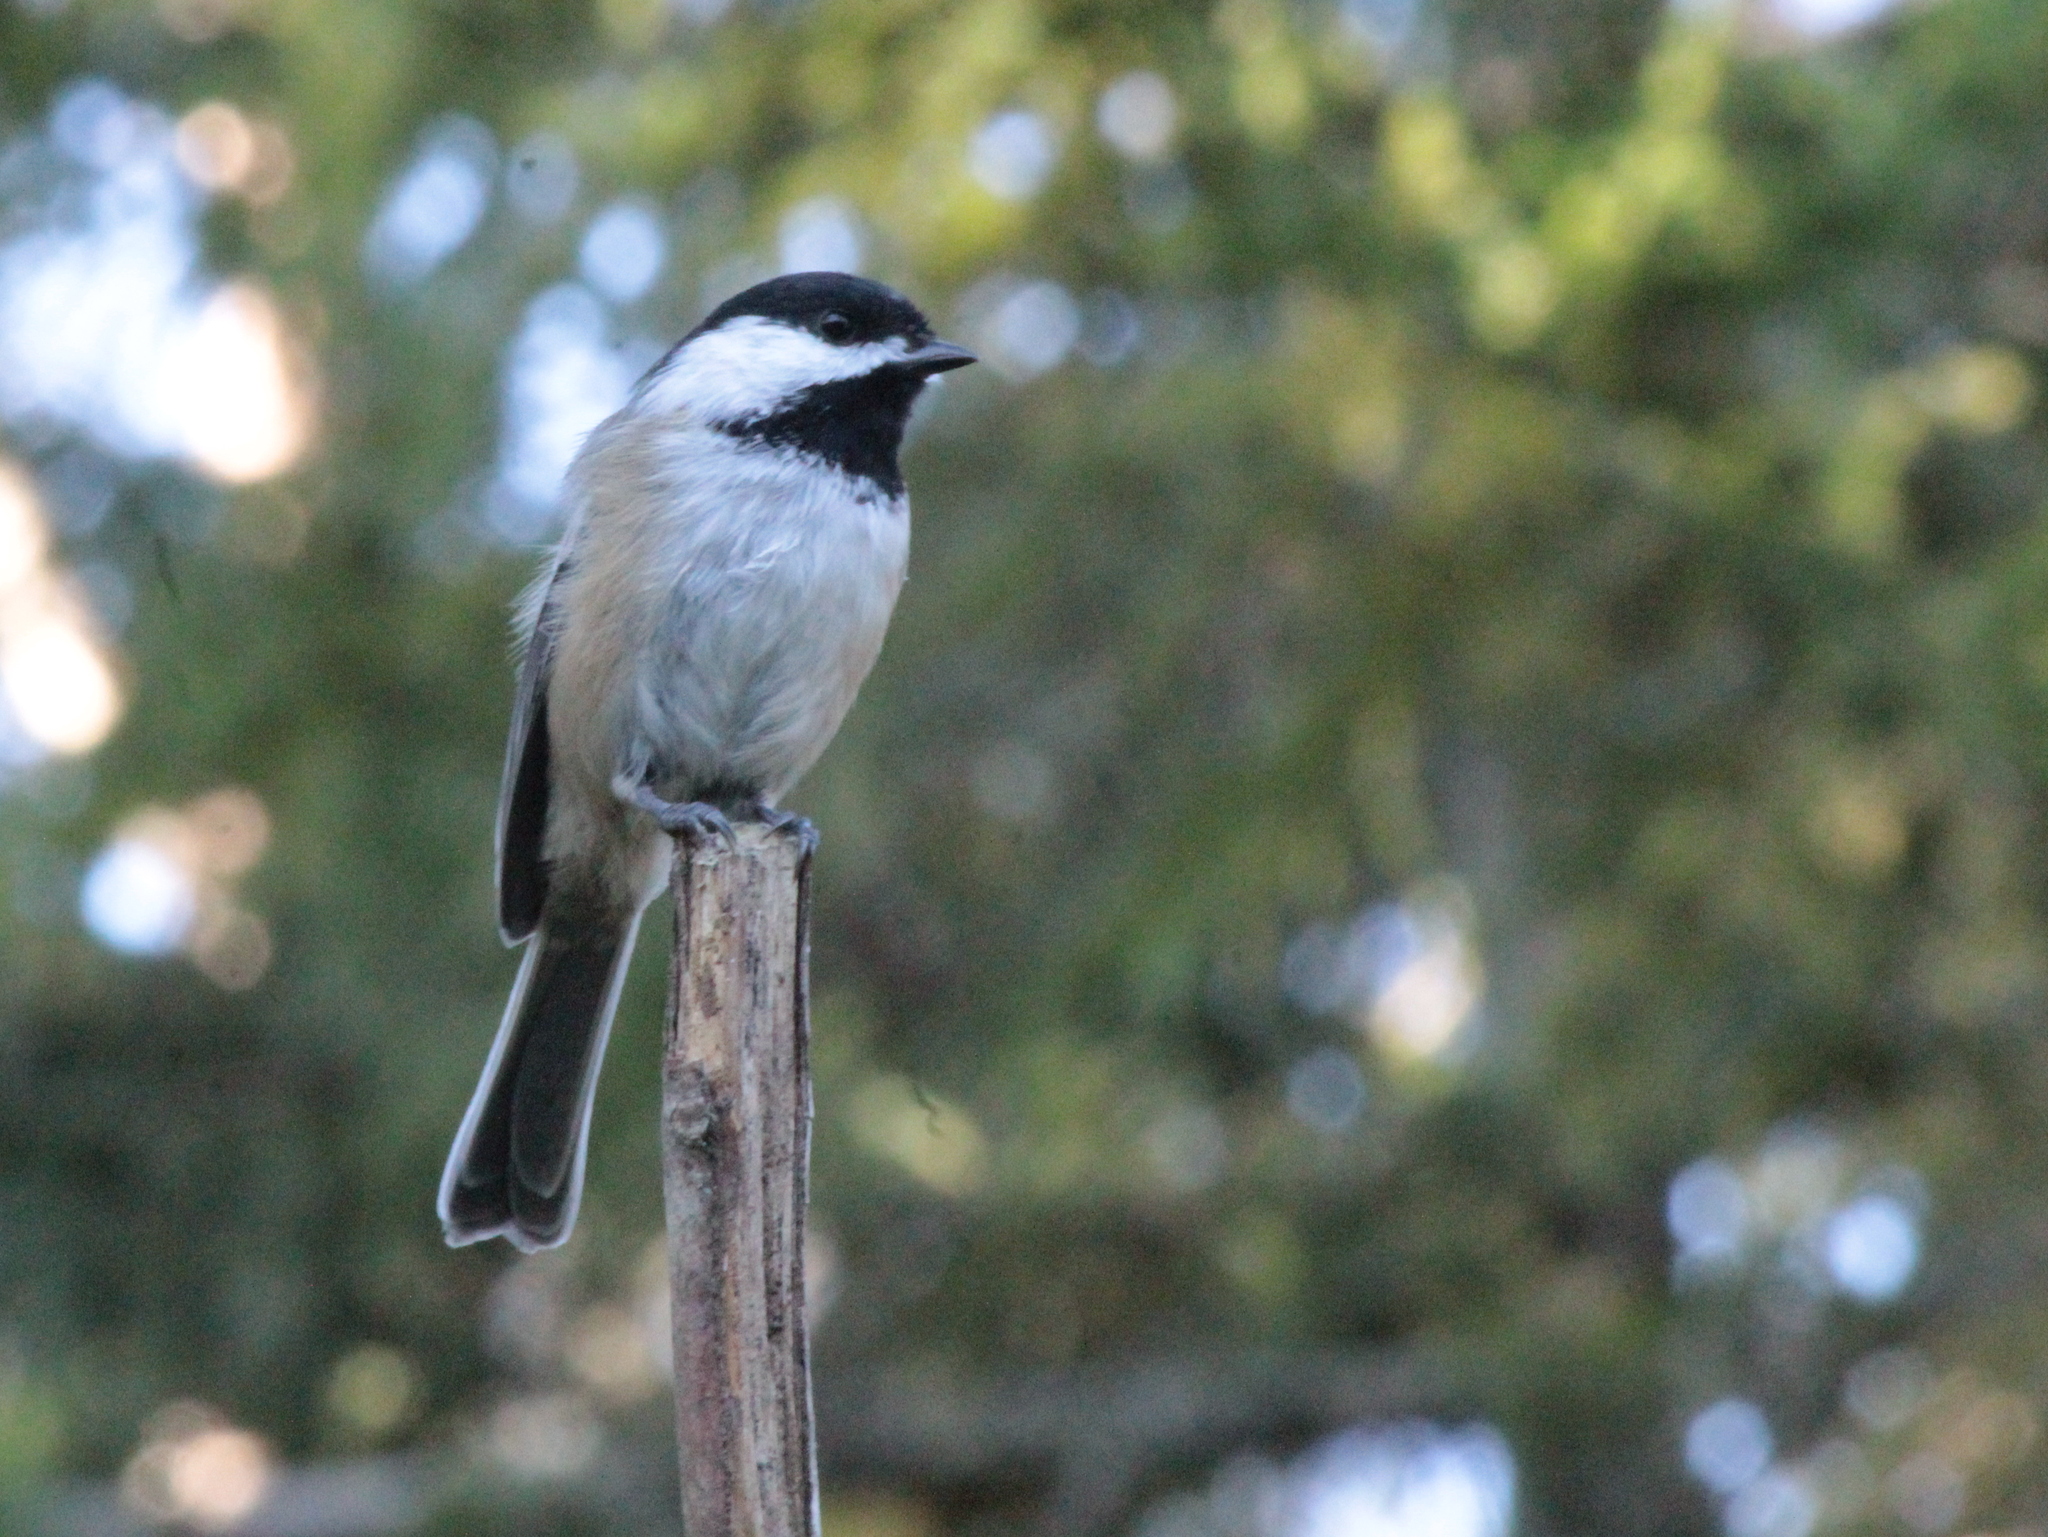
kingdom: Animalia
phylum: Chordata
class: Aves
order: Passeriformes
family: Paridae
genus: Poecile
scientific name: Poecile atricapillus
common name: Black-capped chickadee
